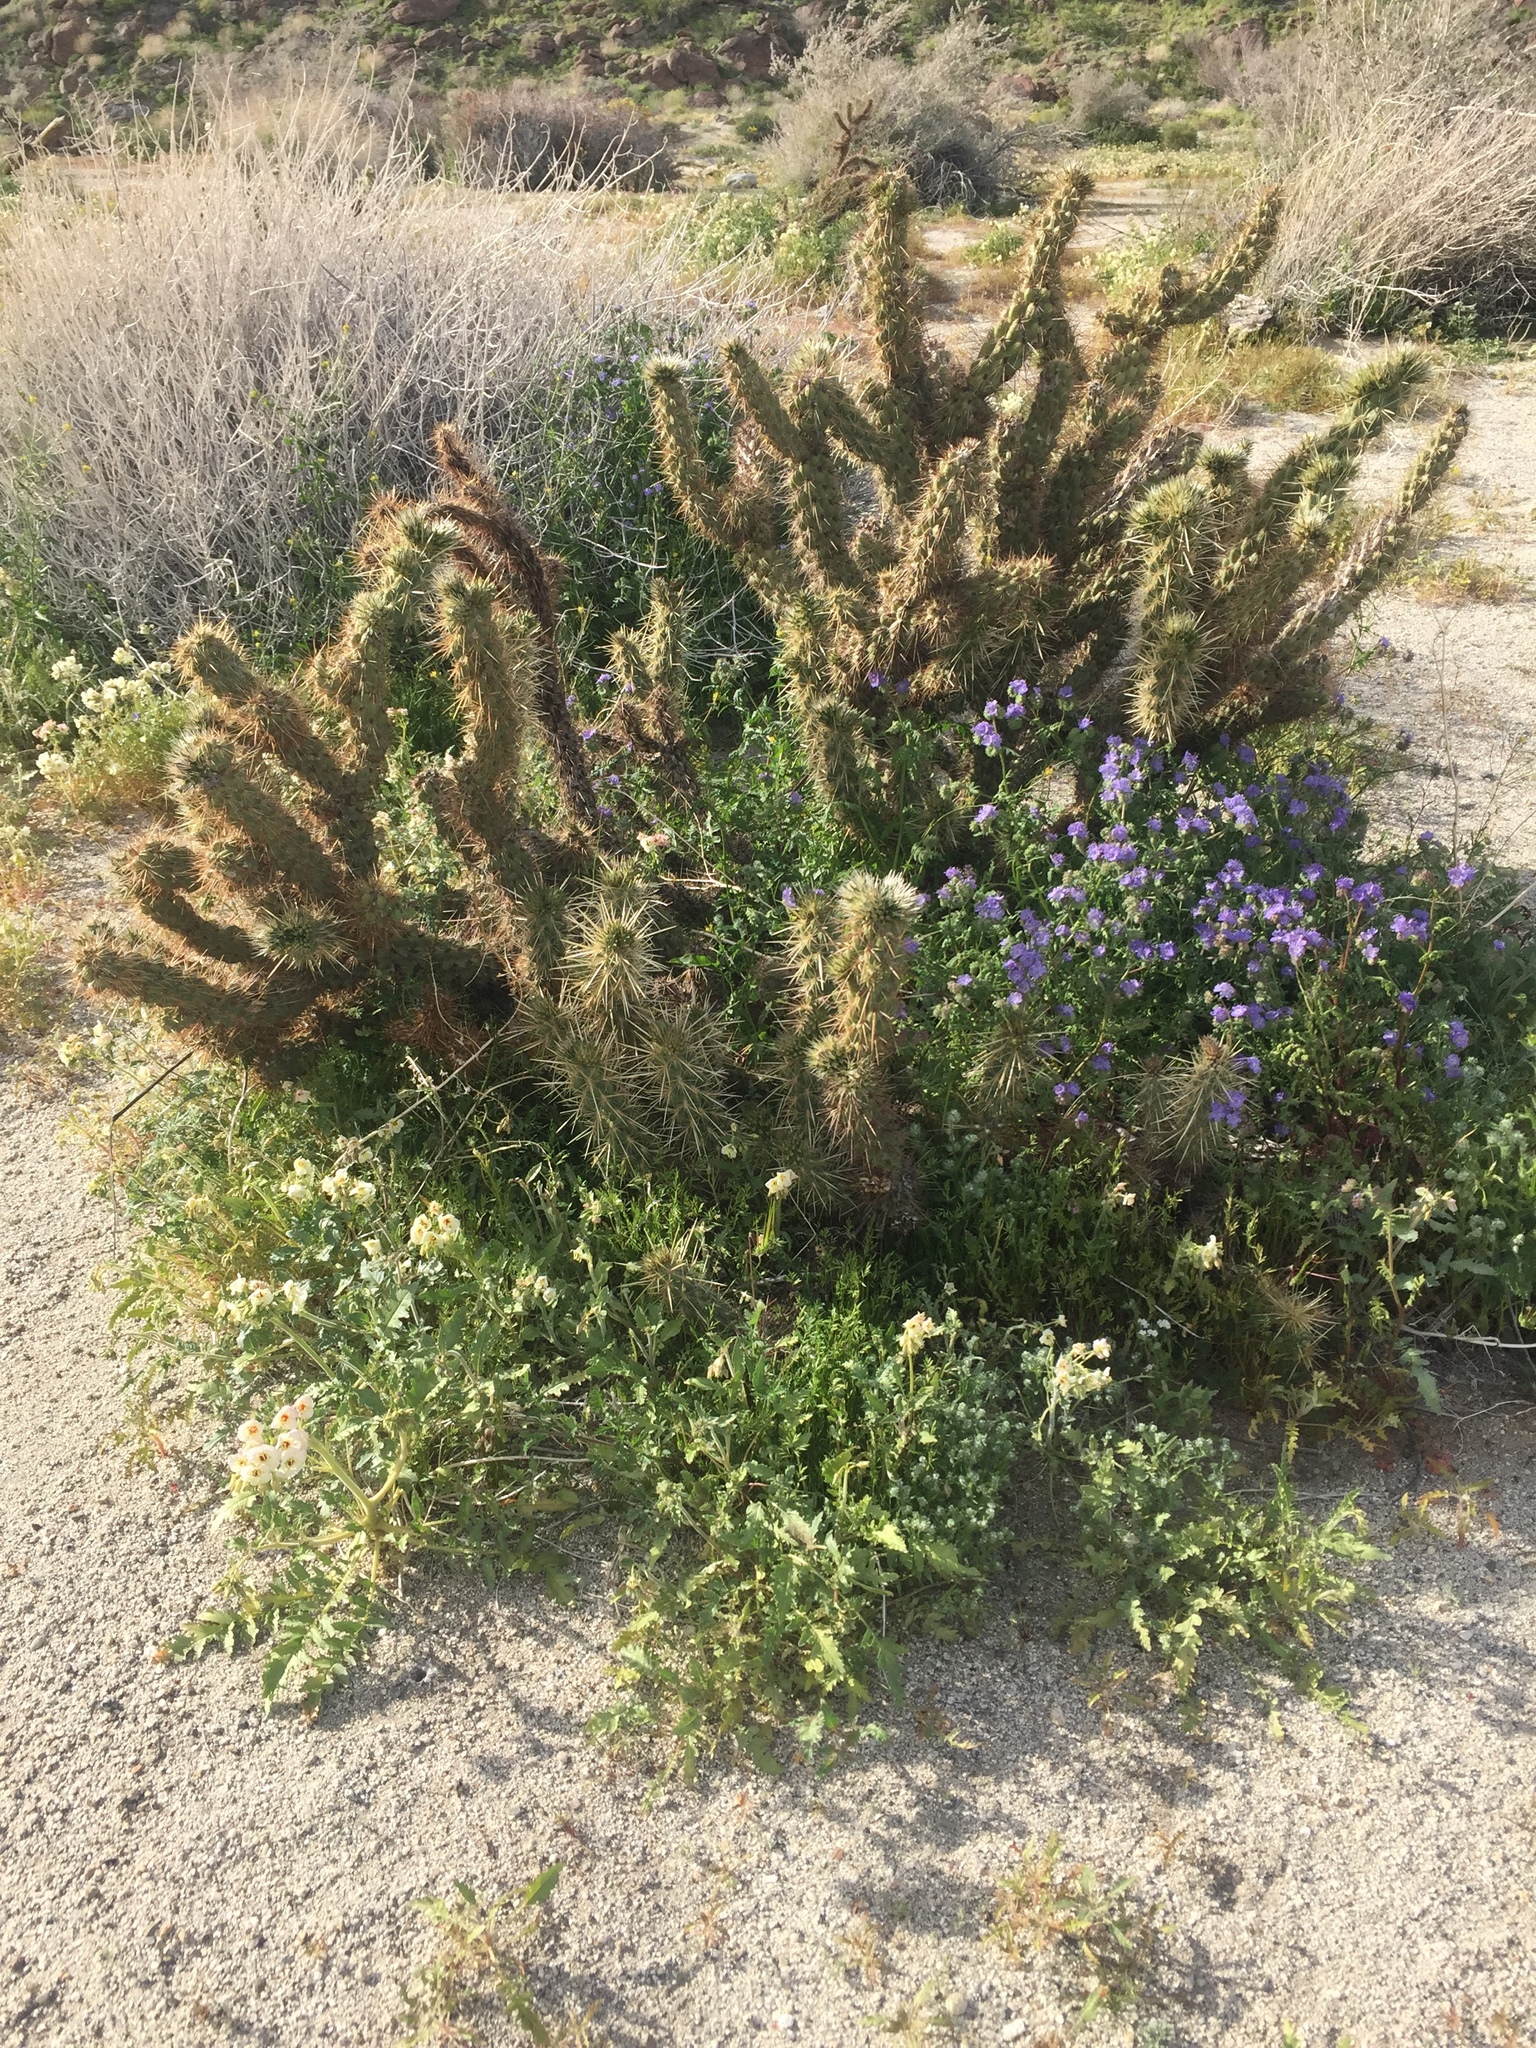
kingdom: Plantae
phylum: Tracheophyta
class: Magnoliopsida
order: Caryophyllales
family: Cactaceae
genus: Cylindropuntia
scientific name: Cylindropuntia ganderi
